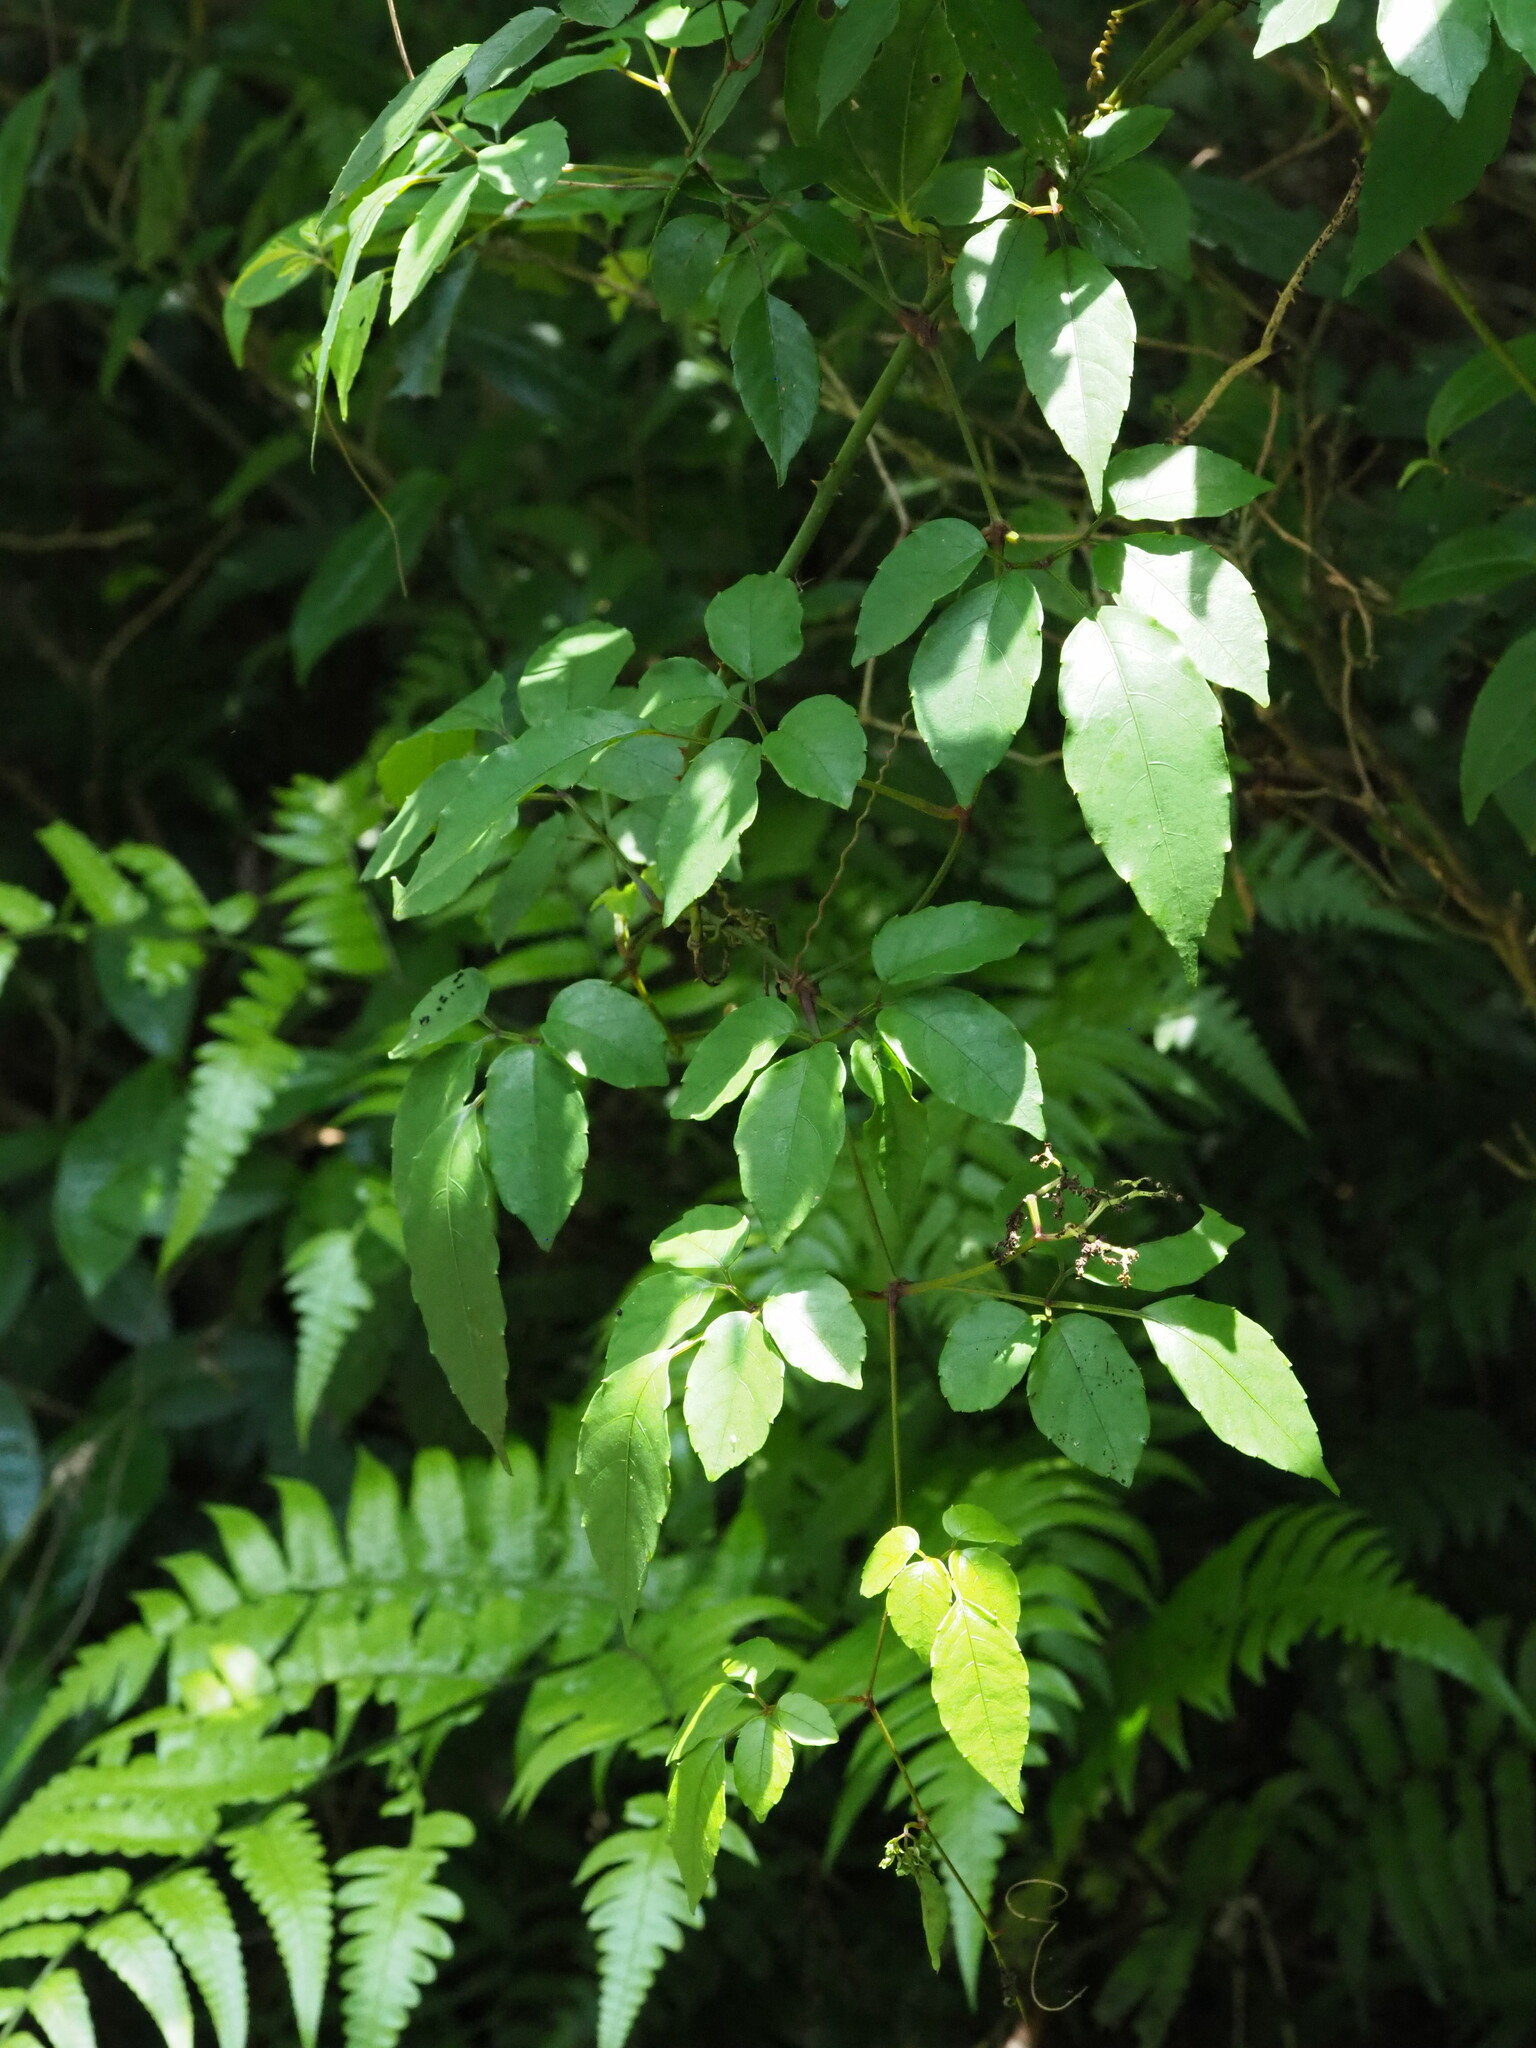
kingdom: Plantae
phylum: Tracheophyta
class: Magnoliopsida
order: Vitales
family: Vitaceae
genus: Causonis
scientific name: Causonis corniculata
